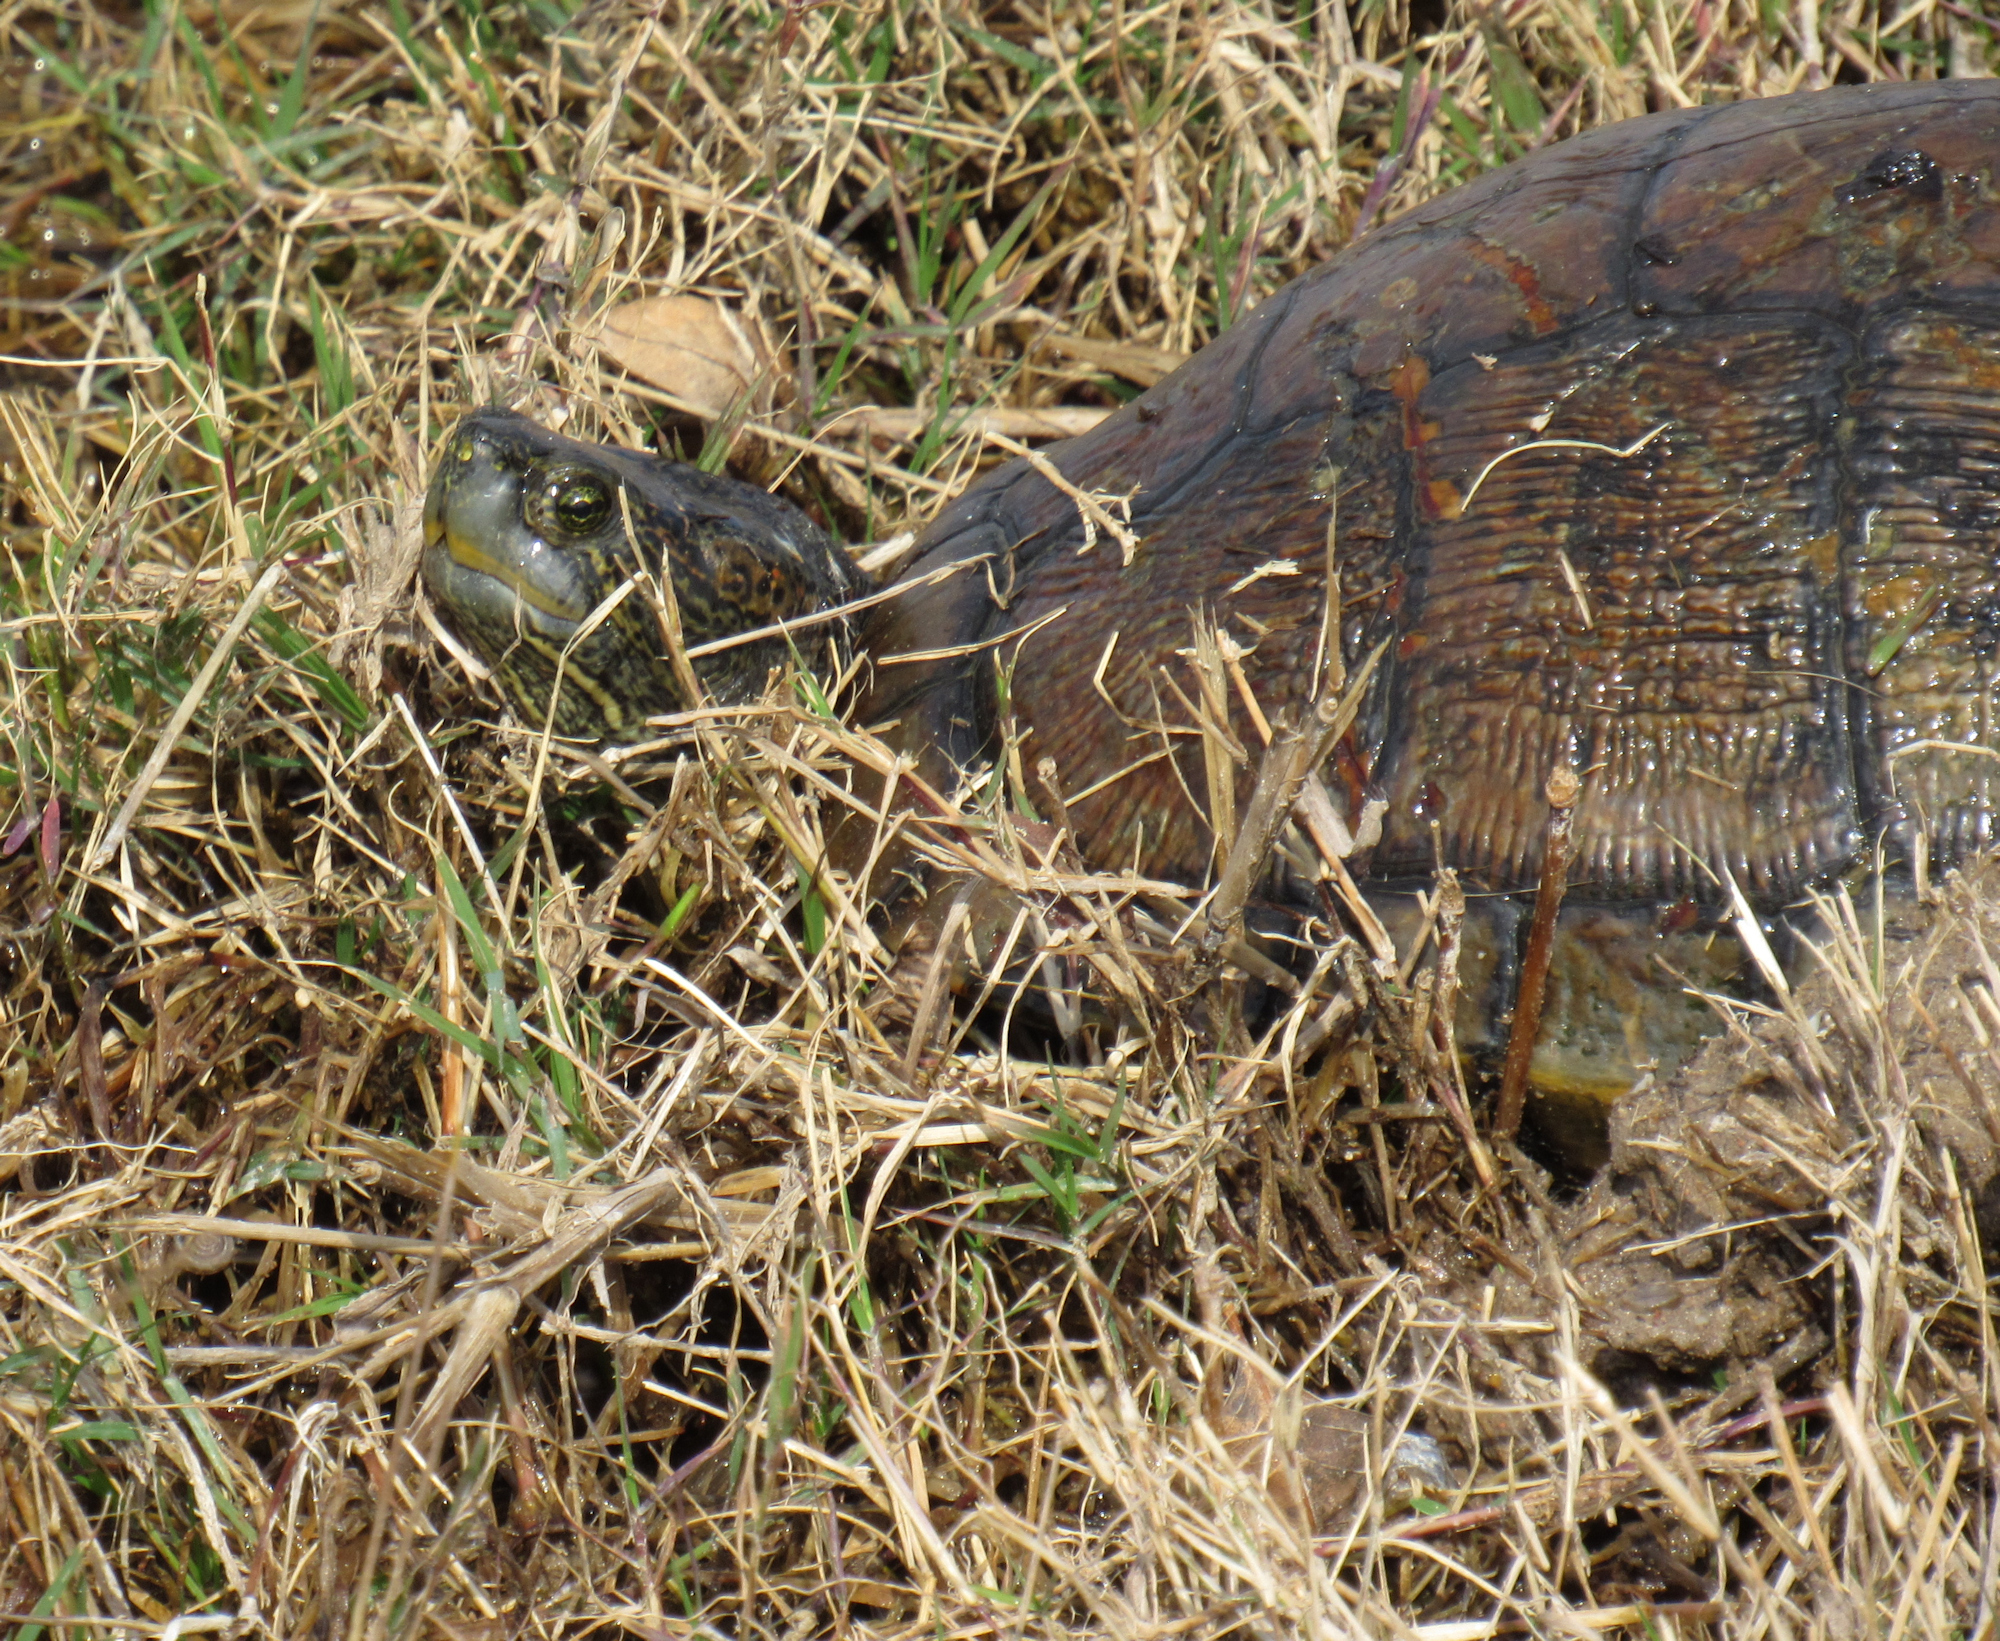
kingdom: Animalia
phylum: Chordata
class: Testudines
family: Emydidae
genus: Trachemys
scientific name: Trachemys scripta
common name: Slider
